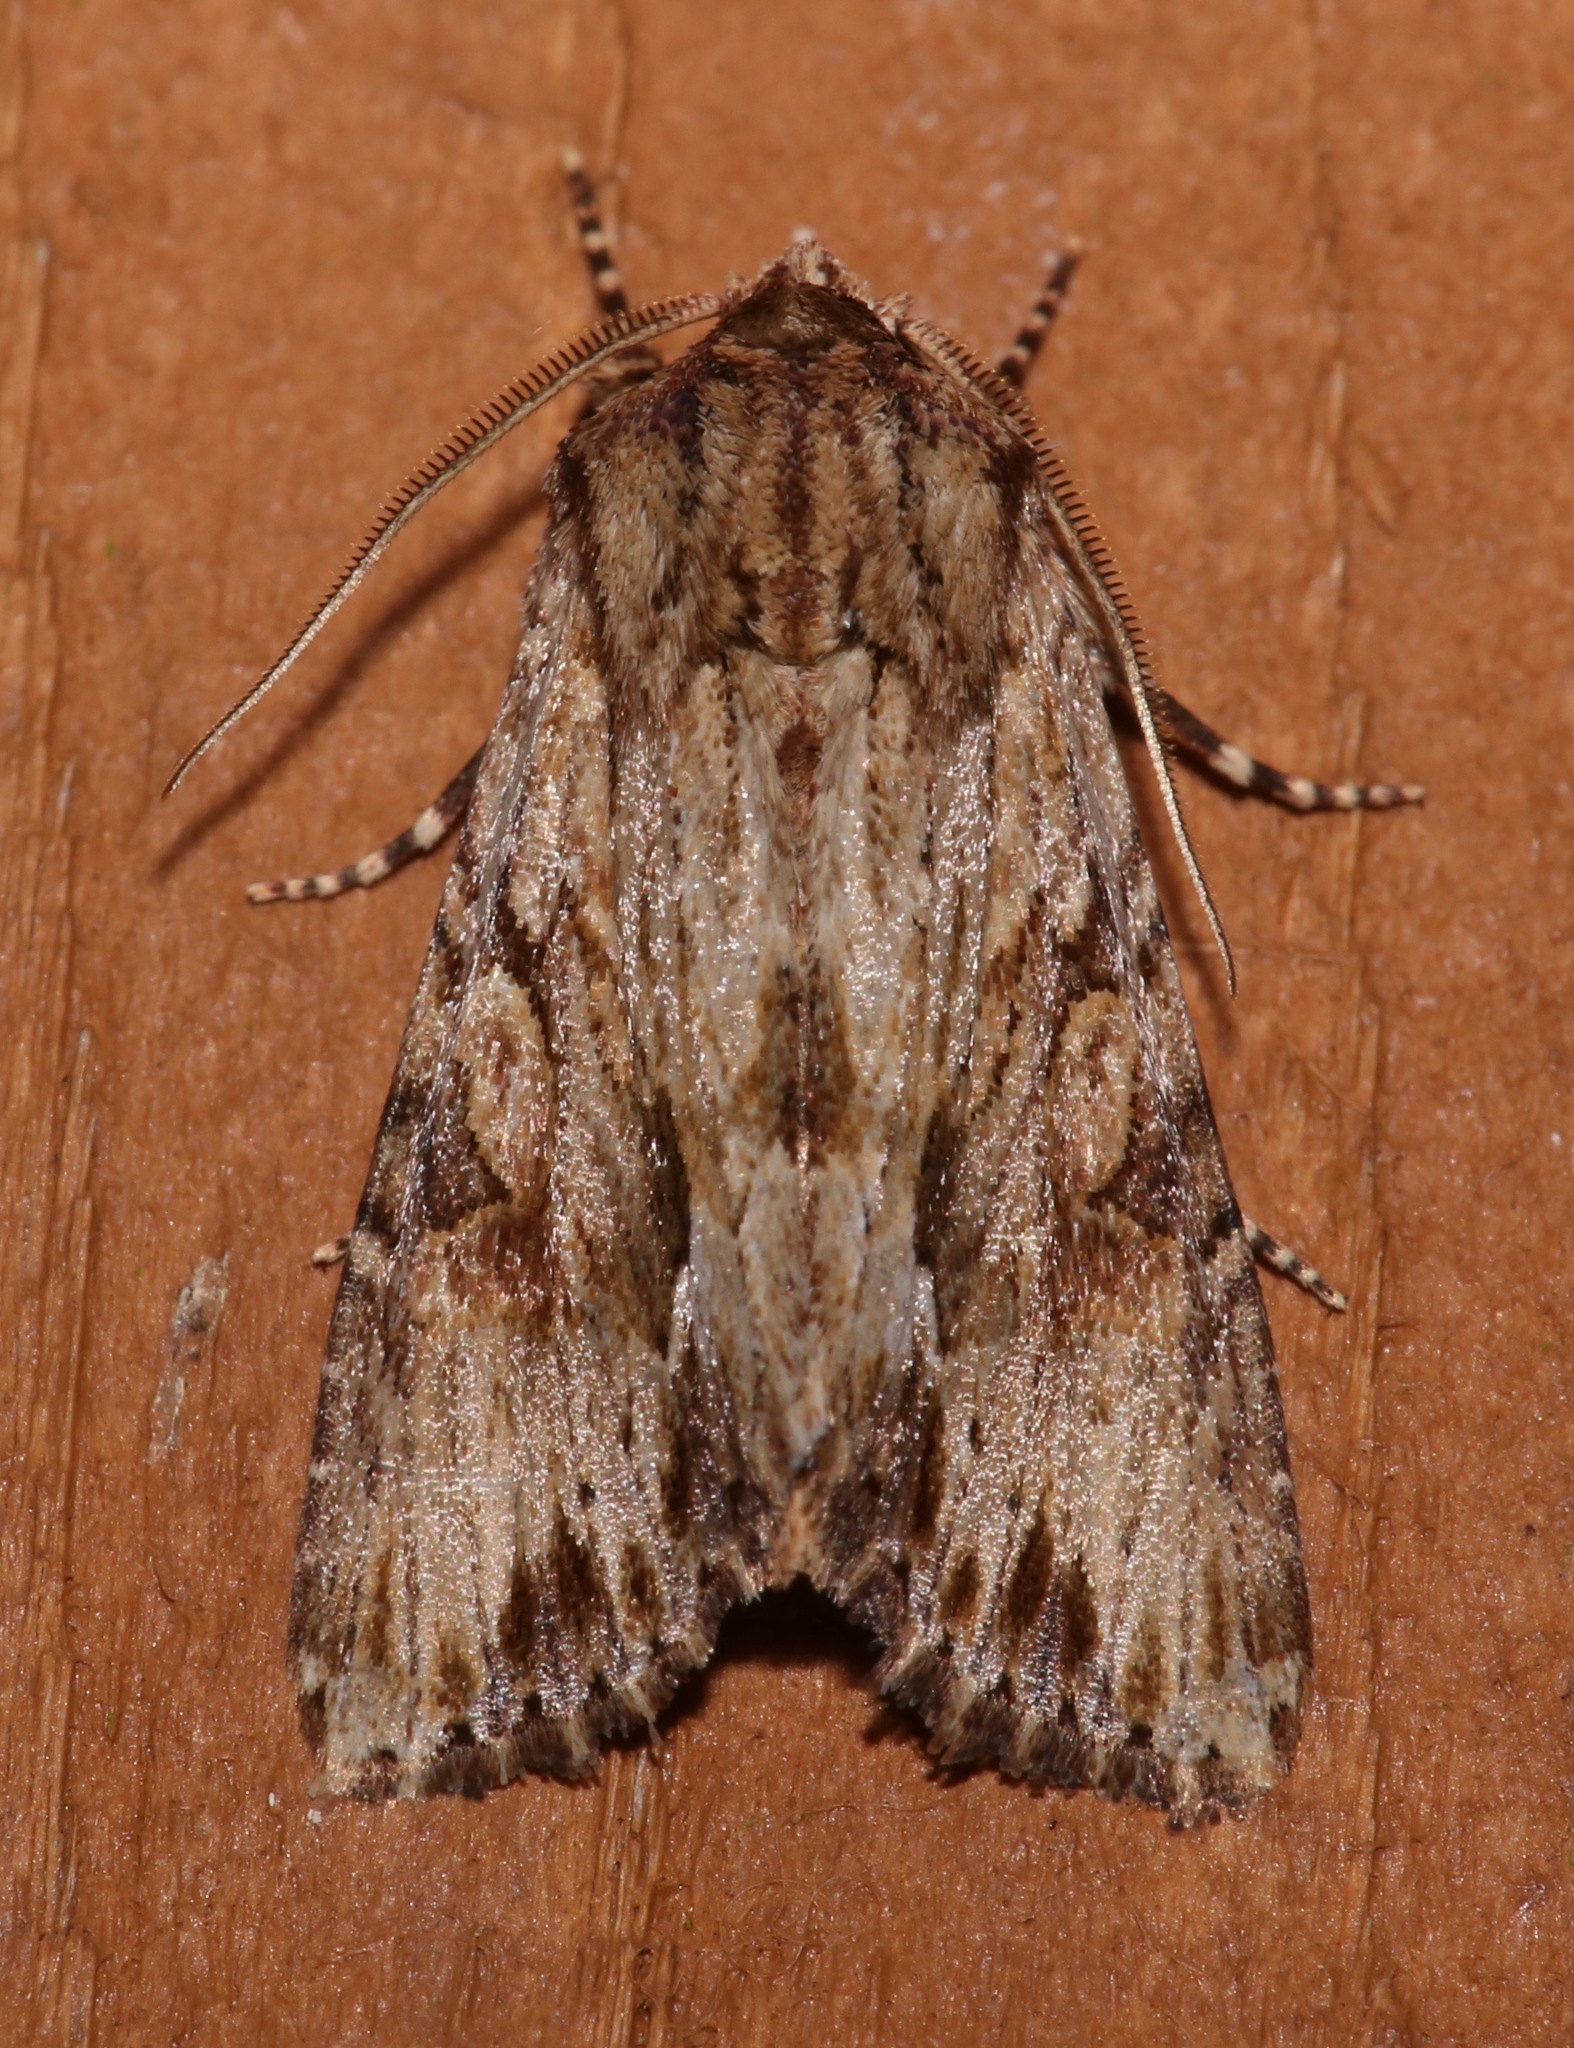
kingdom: Animalia
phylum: Arthropoda
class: Insecta
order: Lepidoptera
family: Noctuidae
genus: Achatia
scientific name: Achatia mucens
